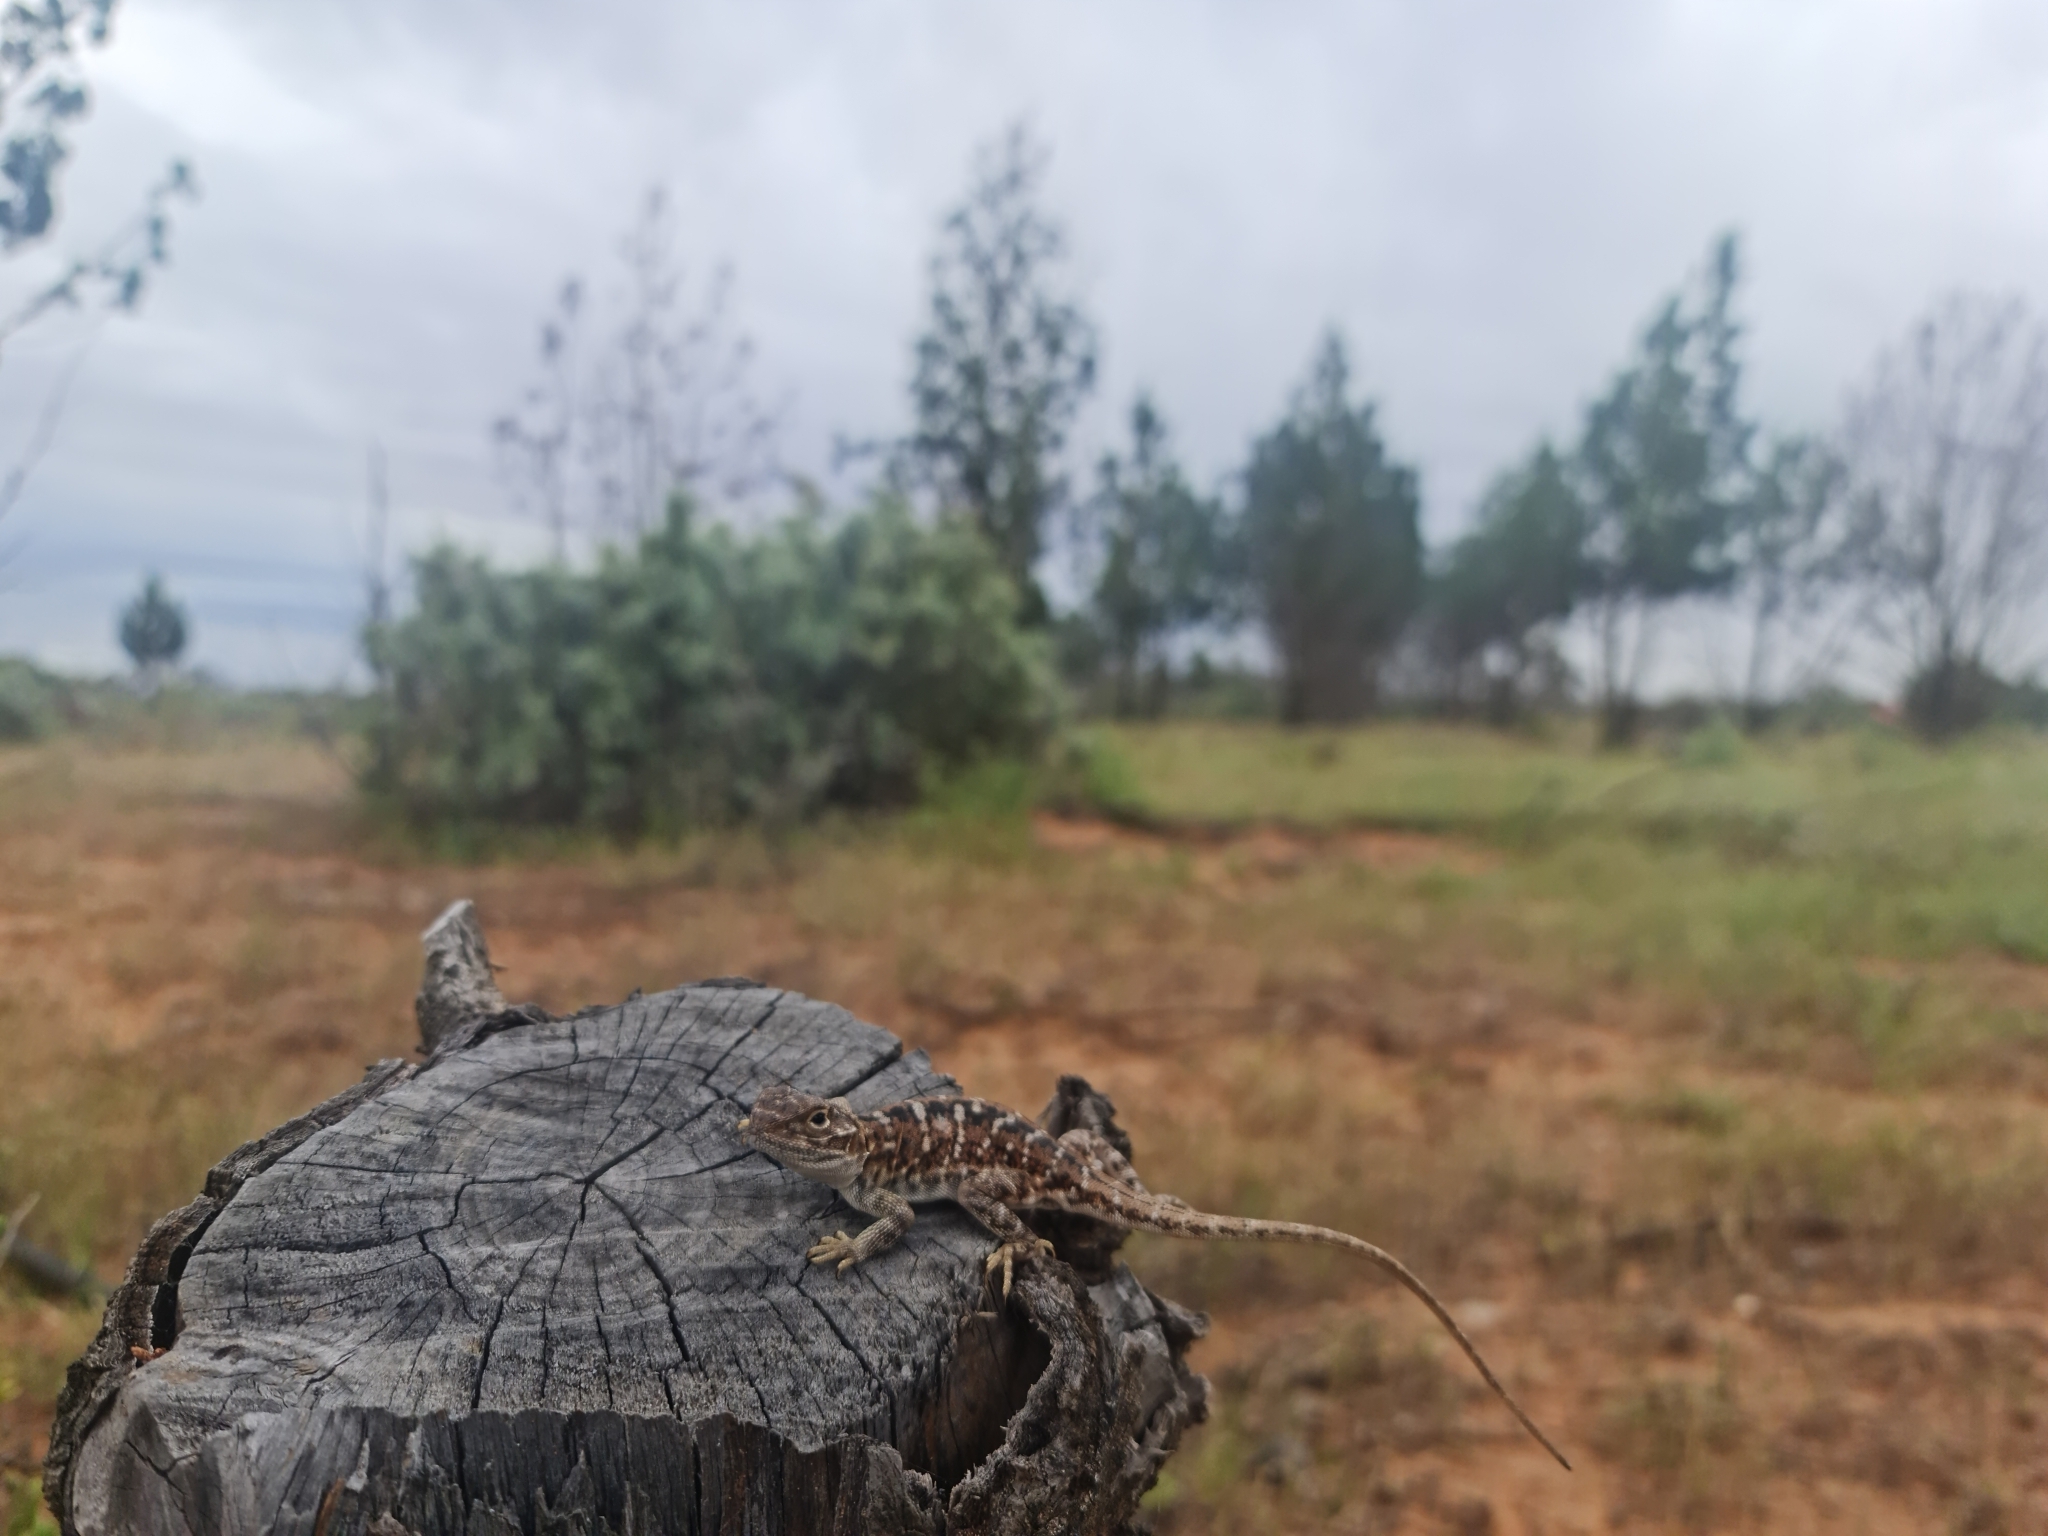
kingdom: Animalia
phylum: Chordata
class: Squamata
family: Agamidae
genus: Ctenophorus
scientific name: Ctenophorus pictus
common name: Painted dragon
